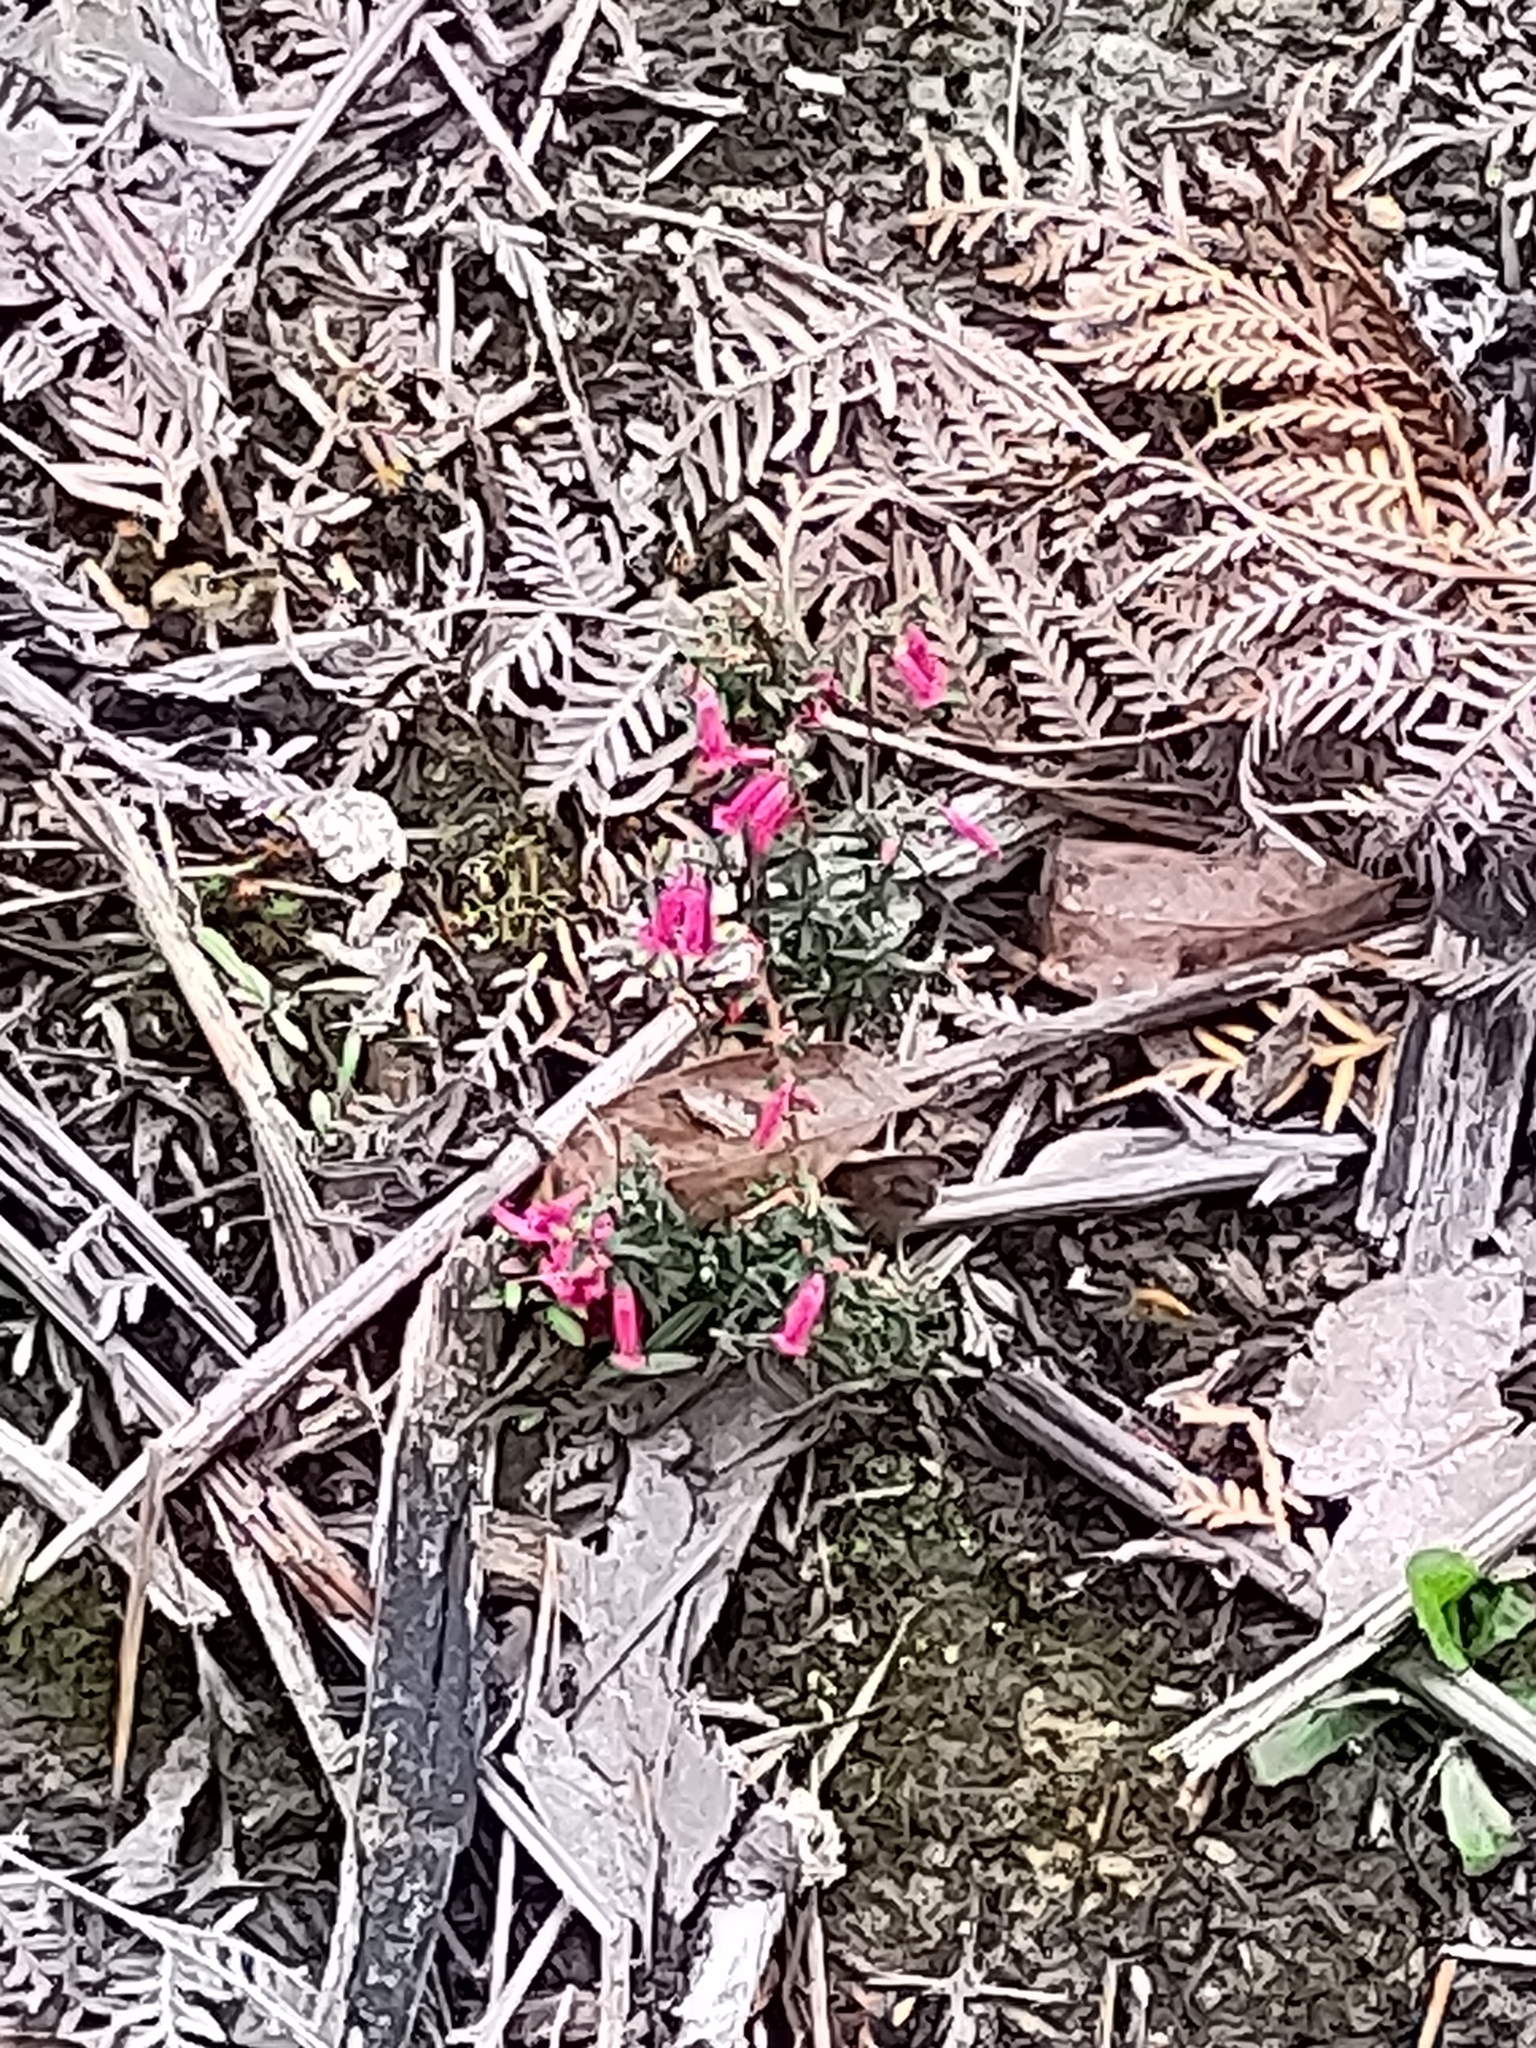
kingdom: Plantae
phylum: Tracheophyta
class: Magnoliopsida
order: Ericales
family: Ericaceae
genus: Epacris
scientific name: Epacris impressa
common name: Common-heath
